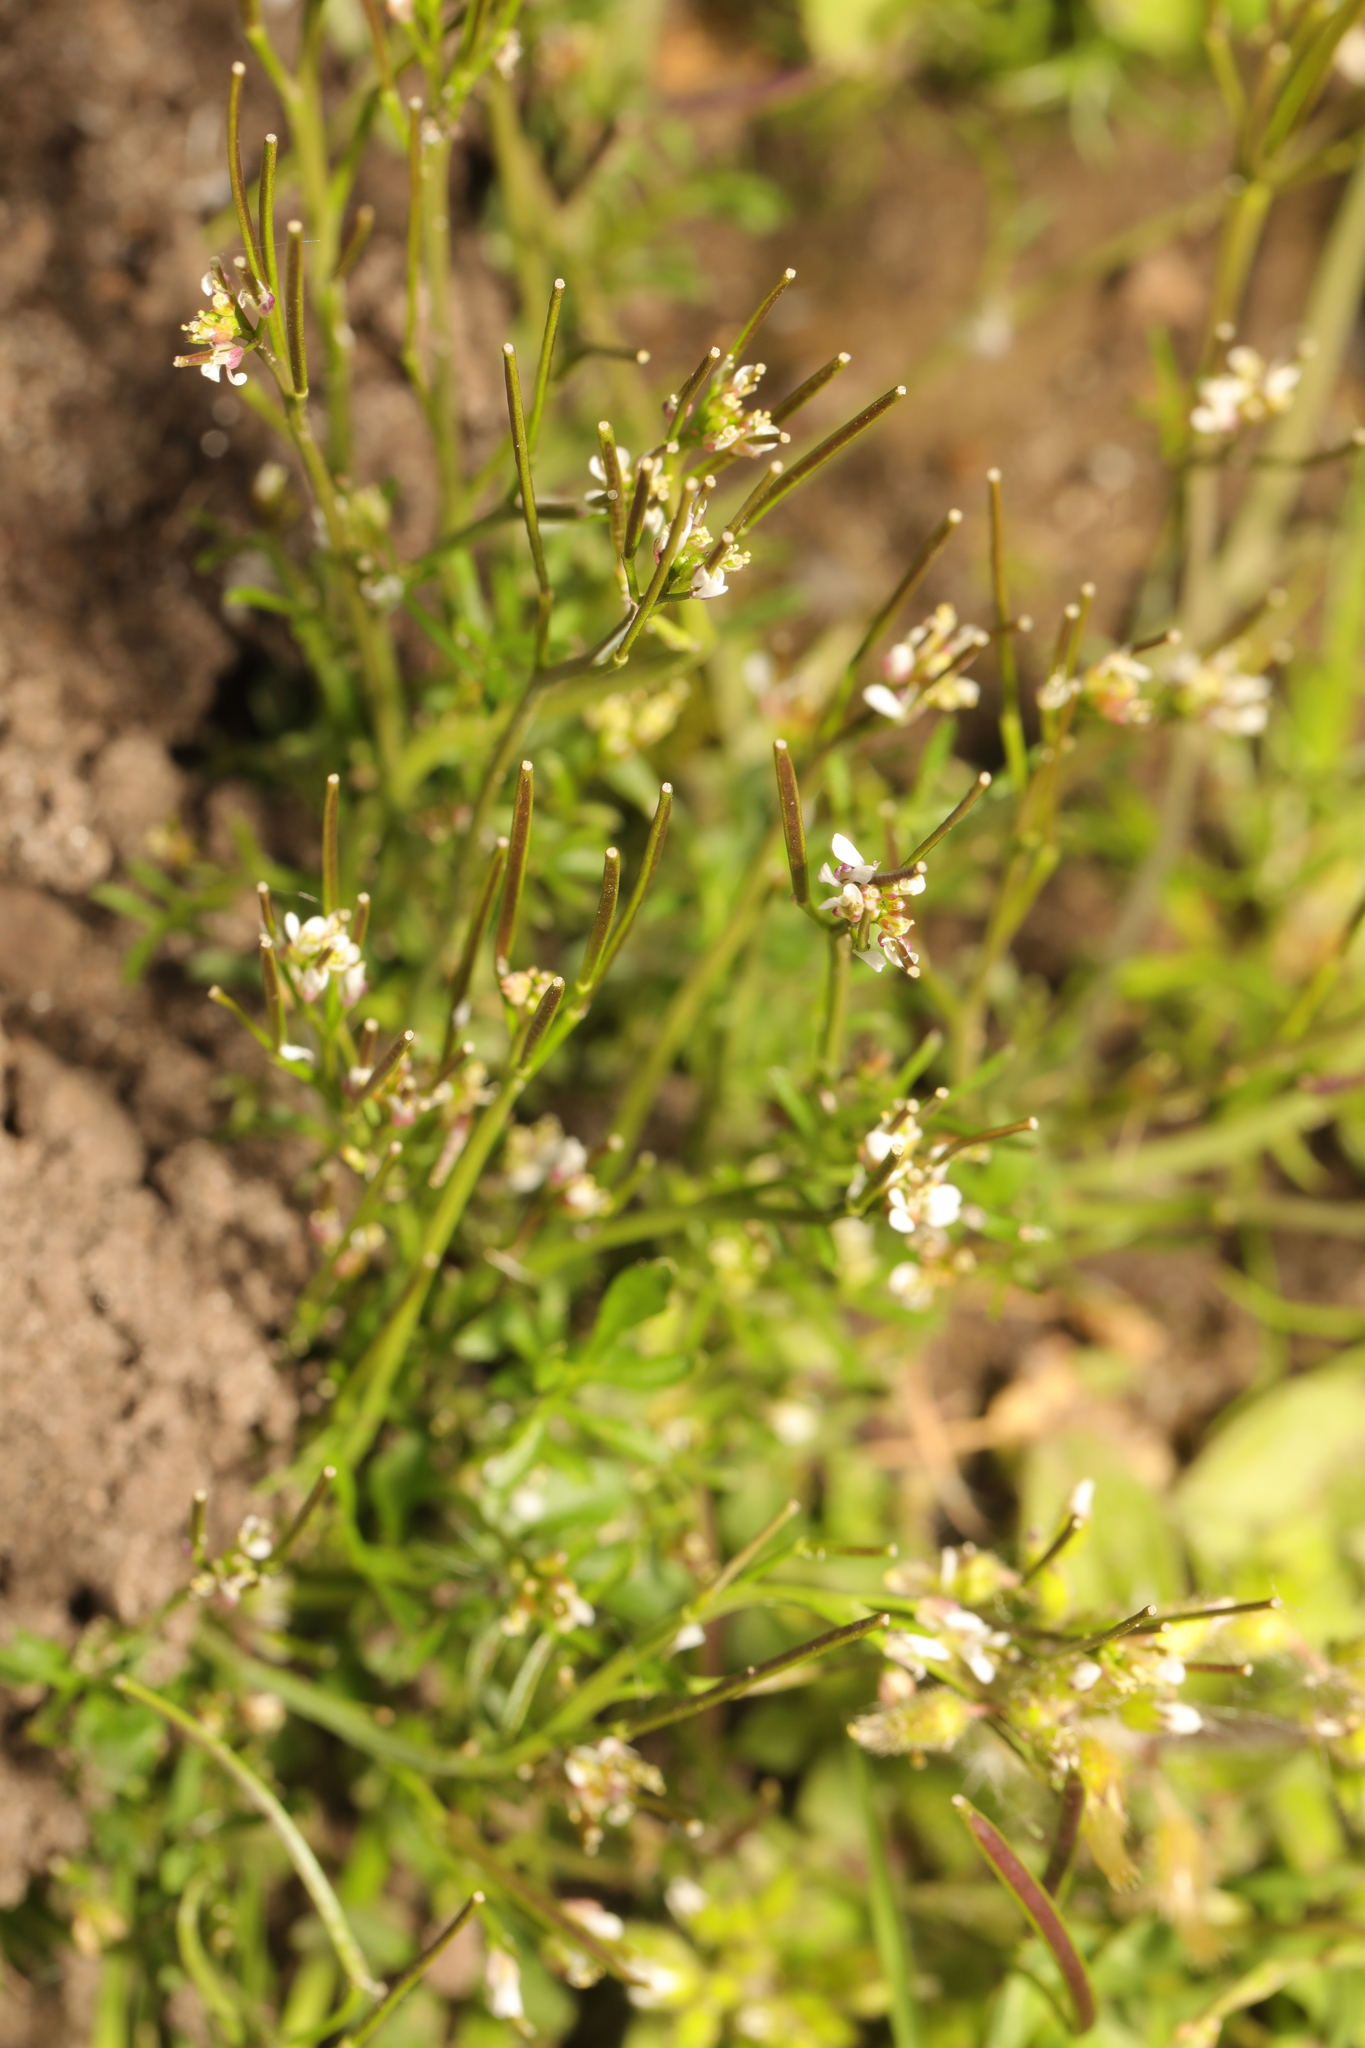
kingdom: Plantae
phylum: Tracheophyta
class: Magnoliopsida
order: Brassicales
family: Brassicaceae
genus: Cardamine
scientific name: Cardamine hirsuta
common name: Hairy bittercress
